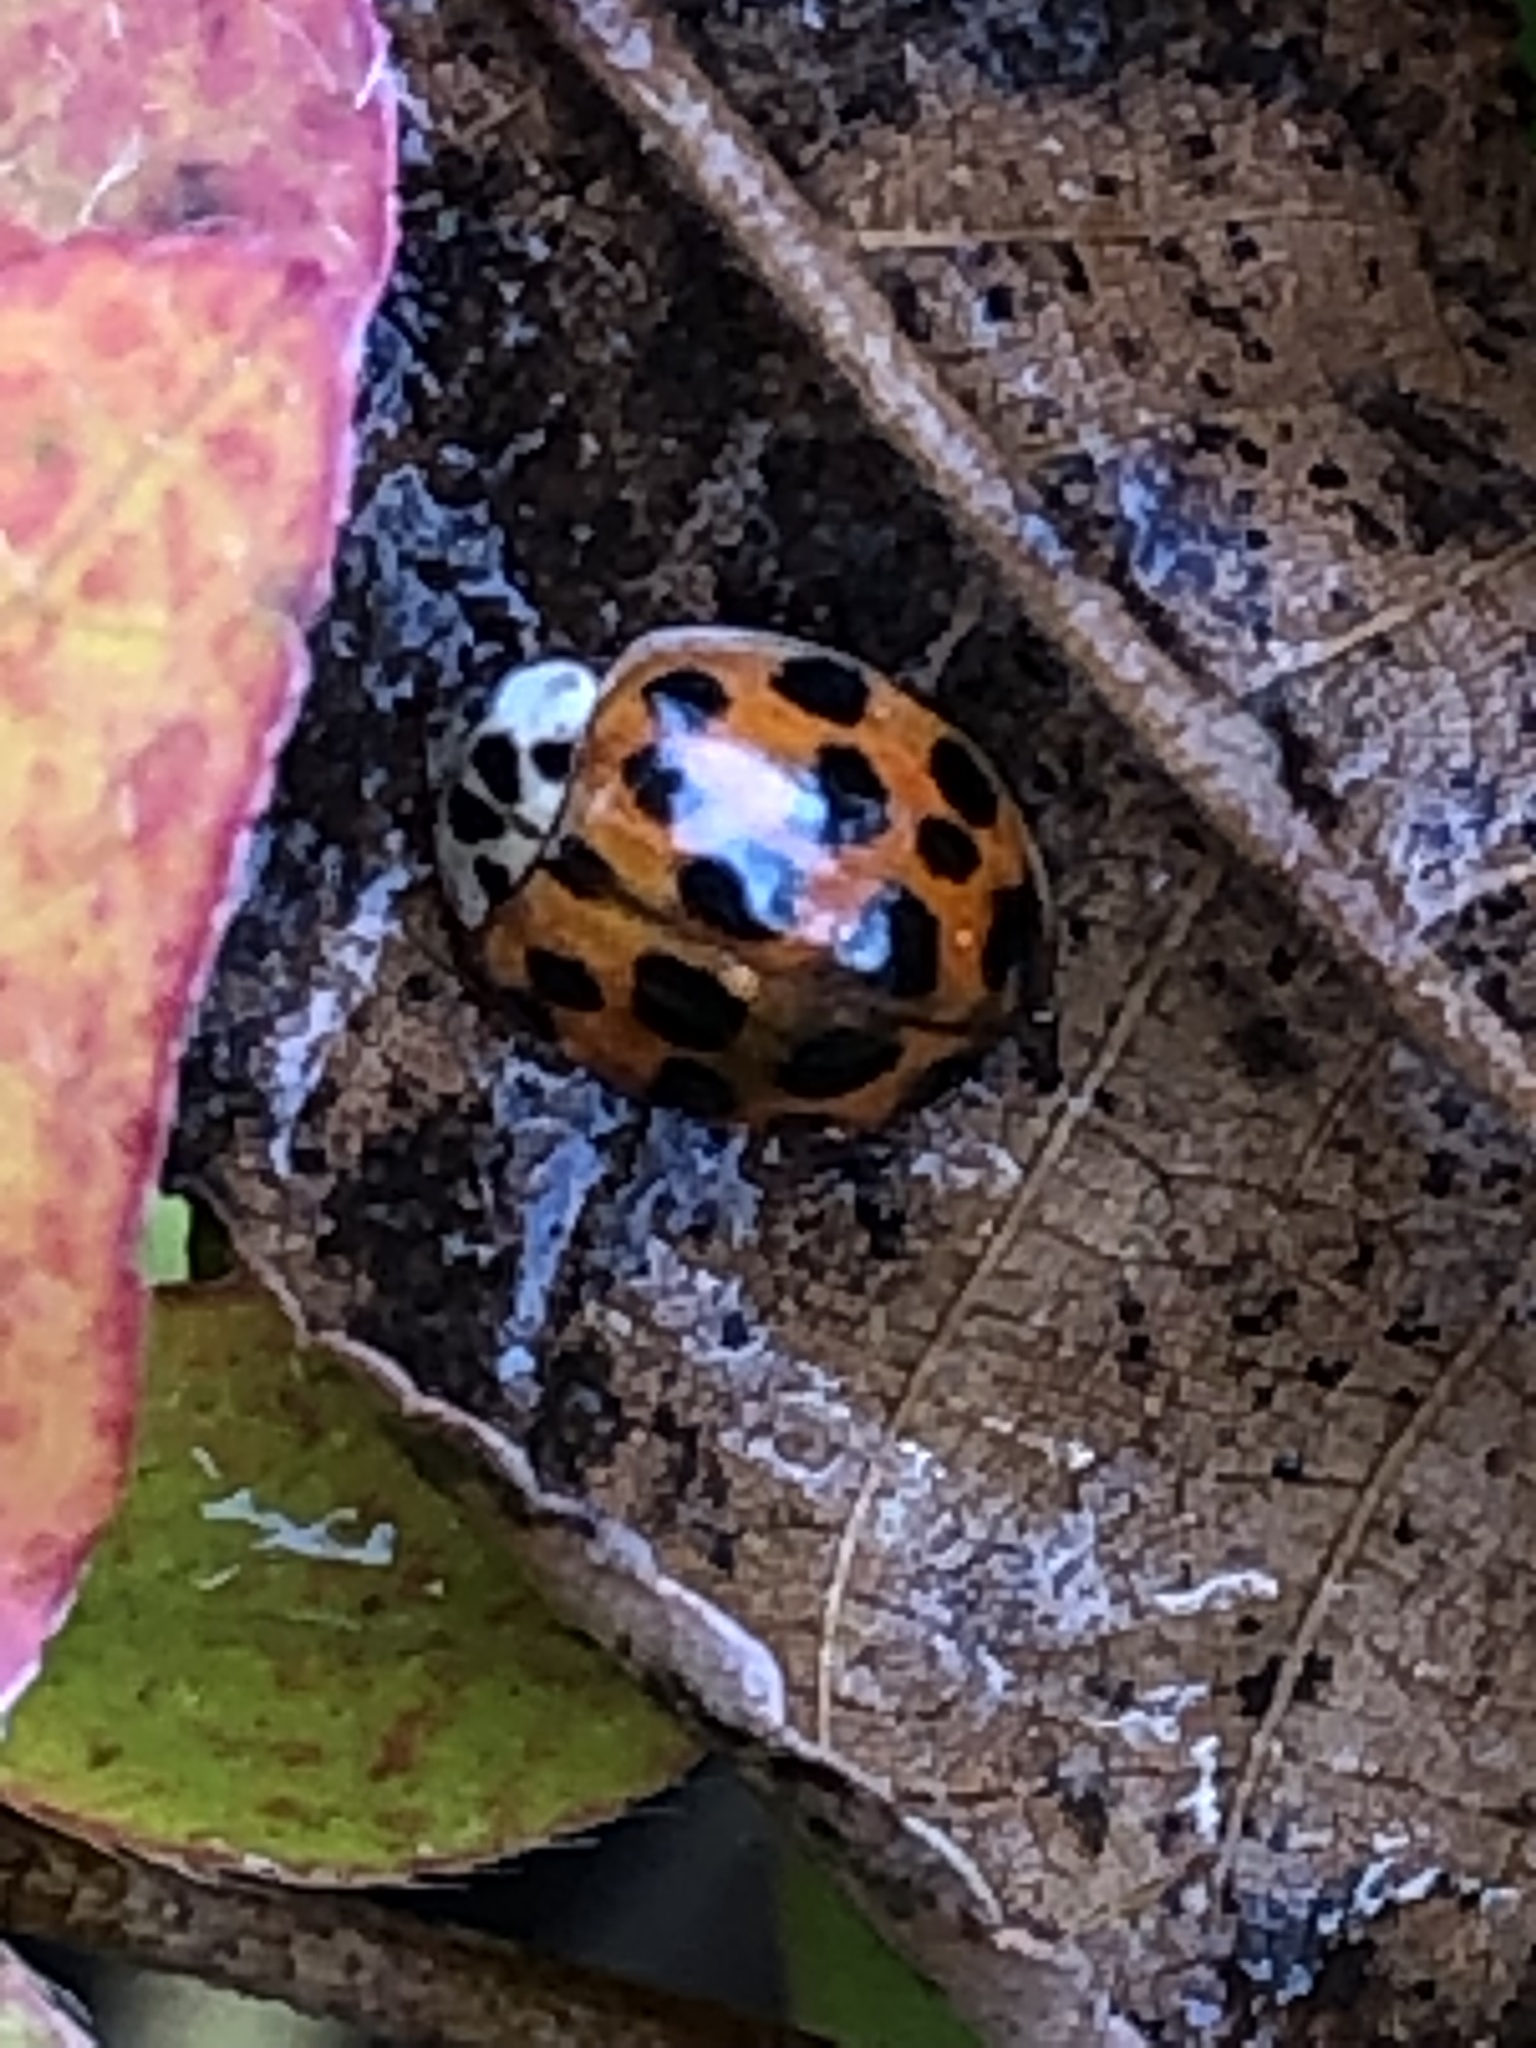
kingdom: Animalia
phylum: Arthropoda
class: Insecta
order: Coleoptera
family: Coccinellidae
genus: Harmonia
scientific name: Harmonia axyridis
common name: Harlequin ladybird
